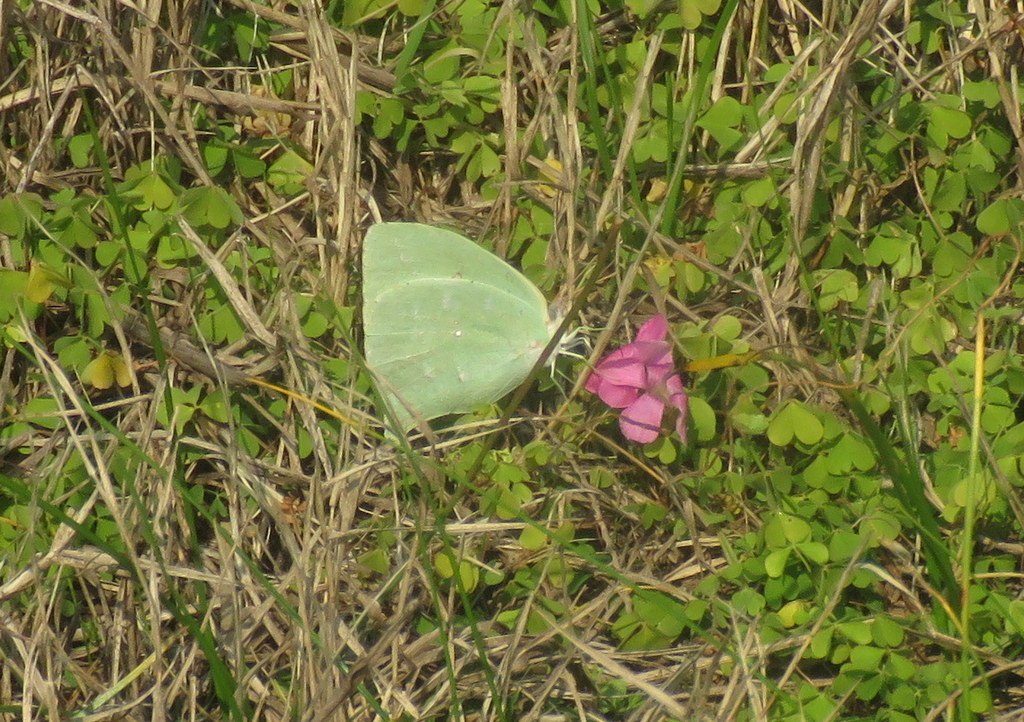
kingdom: Animalia
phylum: Arthropoda
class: Insecta
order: Lepidoptera
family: Pieridae
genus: Phoebis
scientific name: Phoebis neocypris
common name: Tailed sulphur
